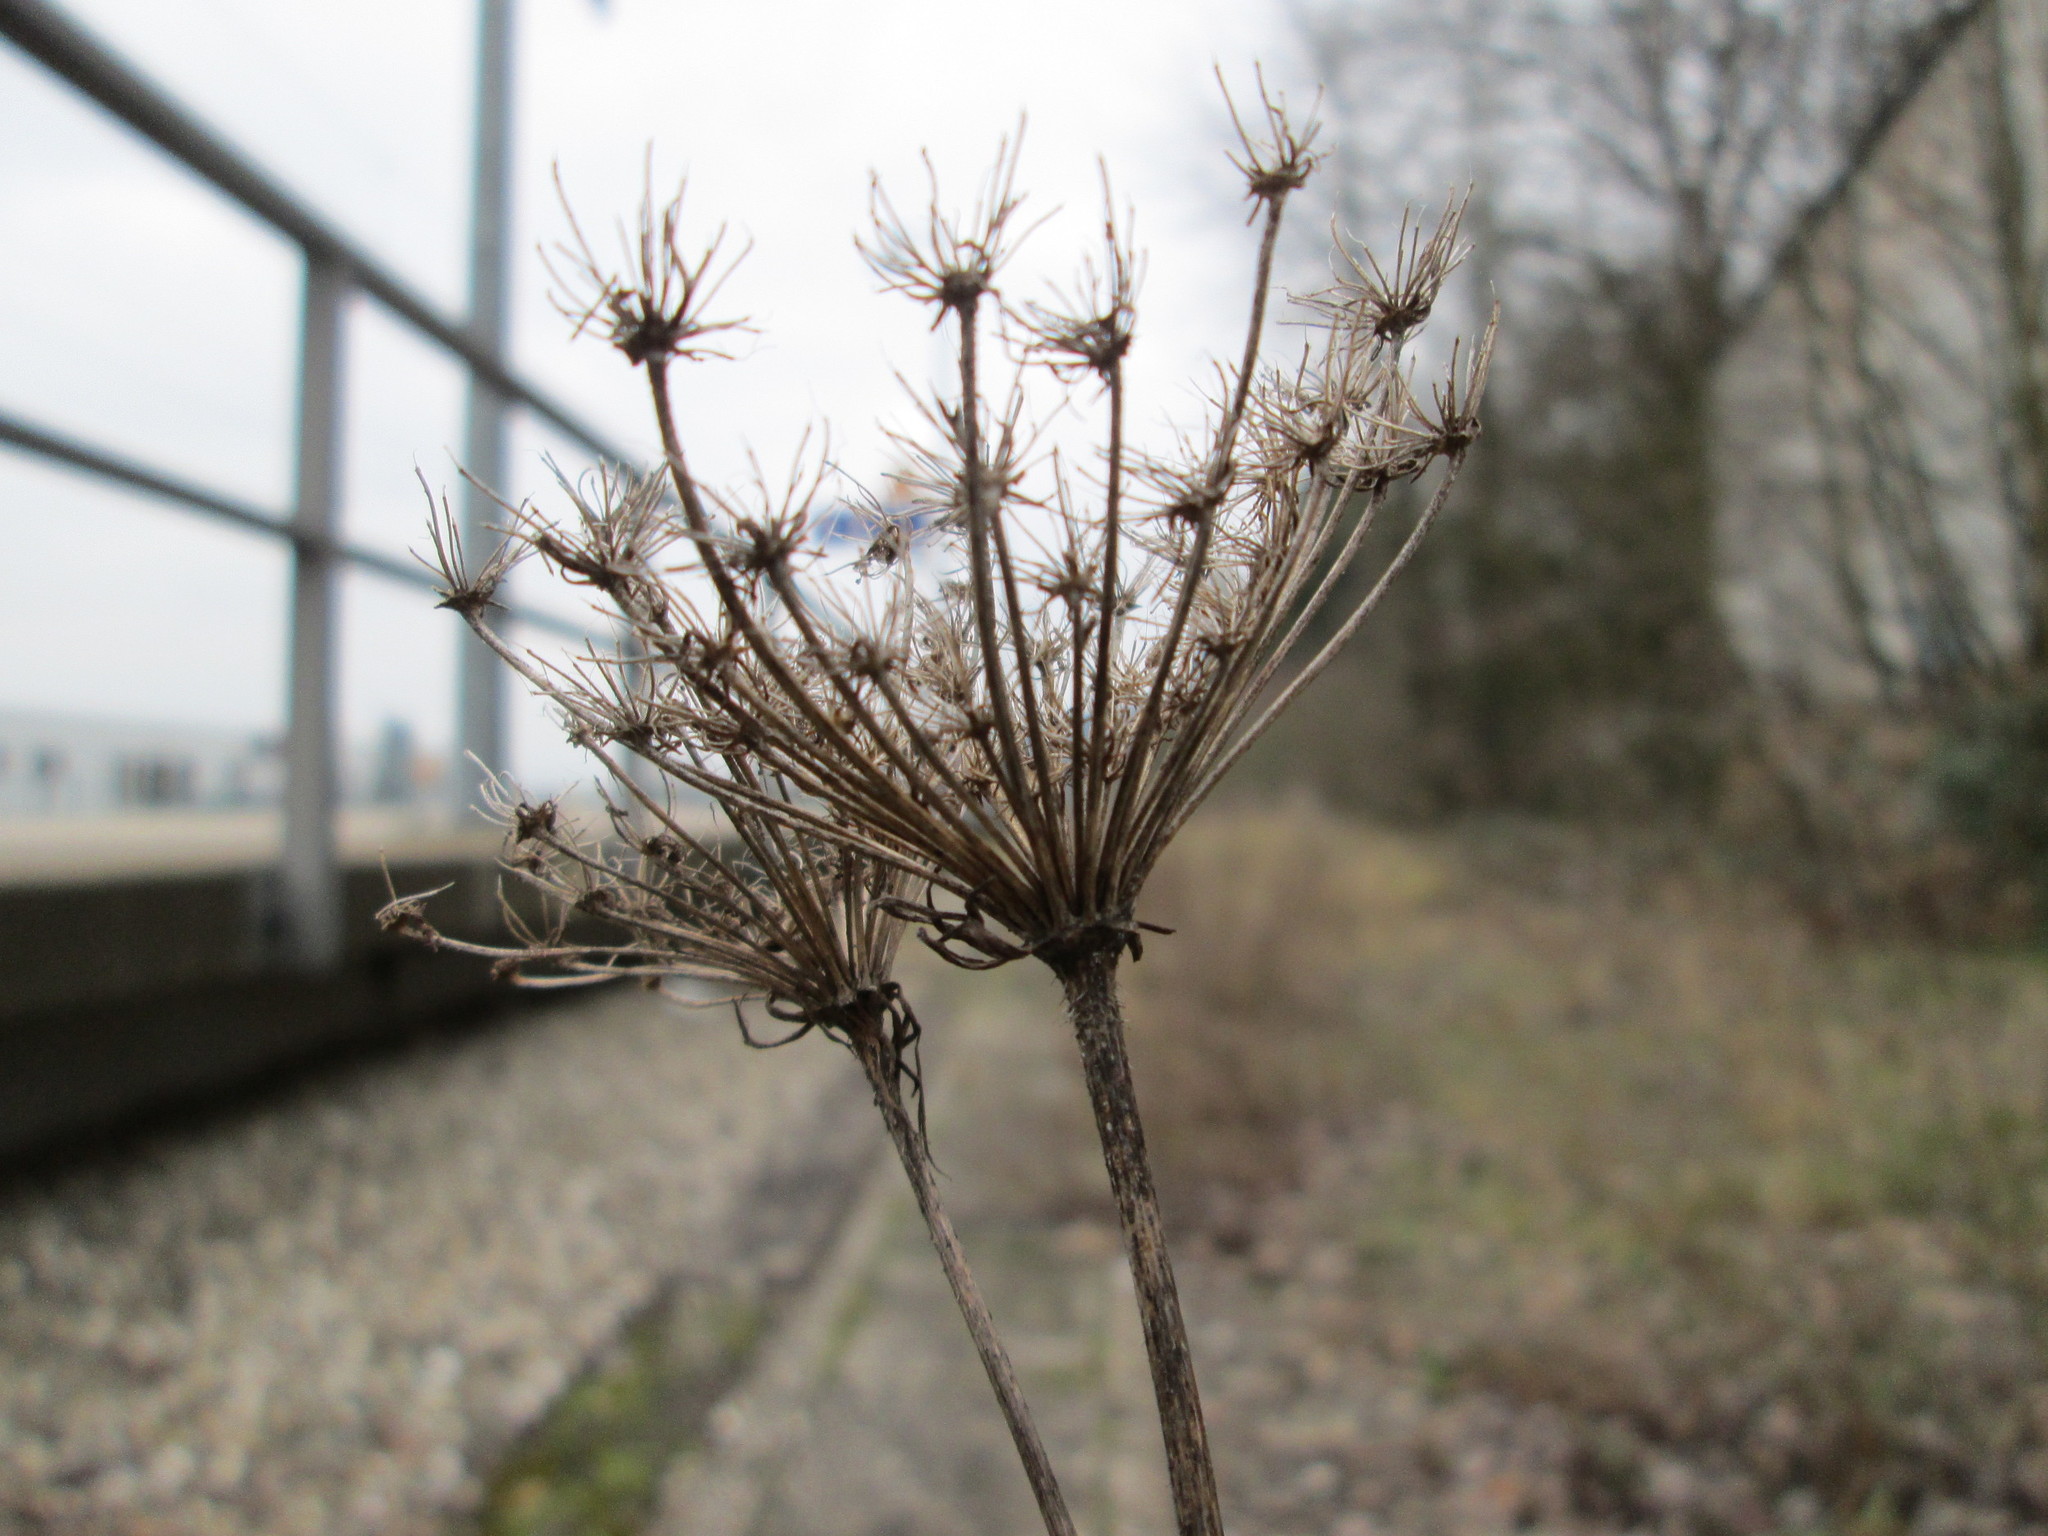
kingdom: Plantae
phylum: Tracheophyta
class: Magnoliopsida
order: Apiales
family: Apiaceae
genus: Daucus
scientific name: Daucus carota
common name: Wild carrot
